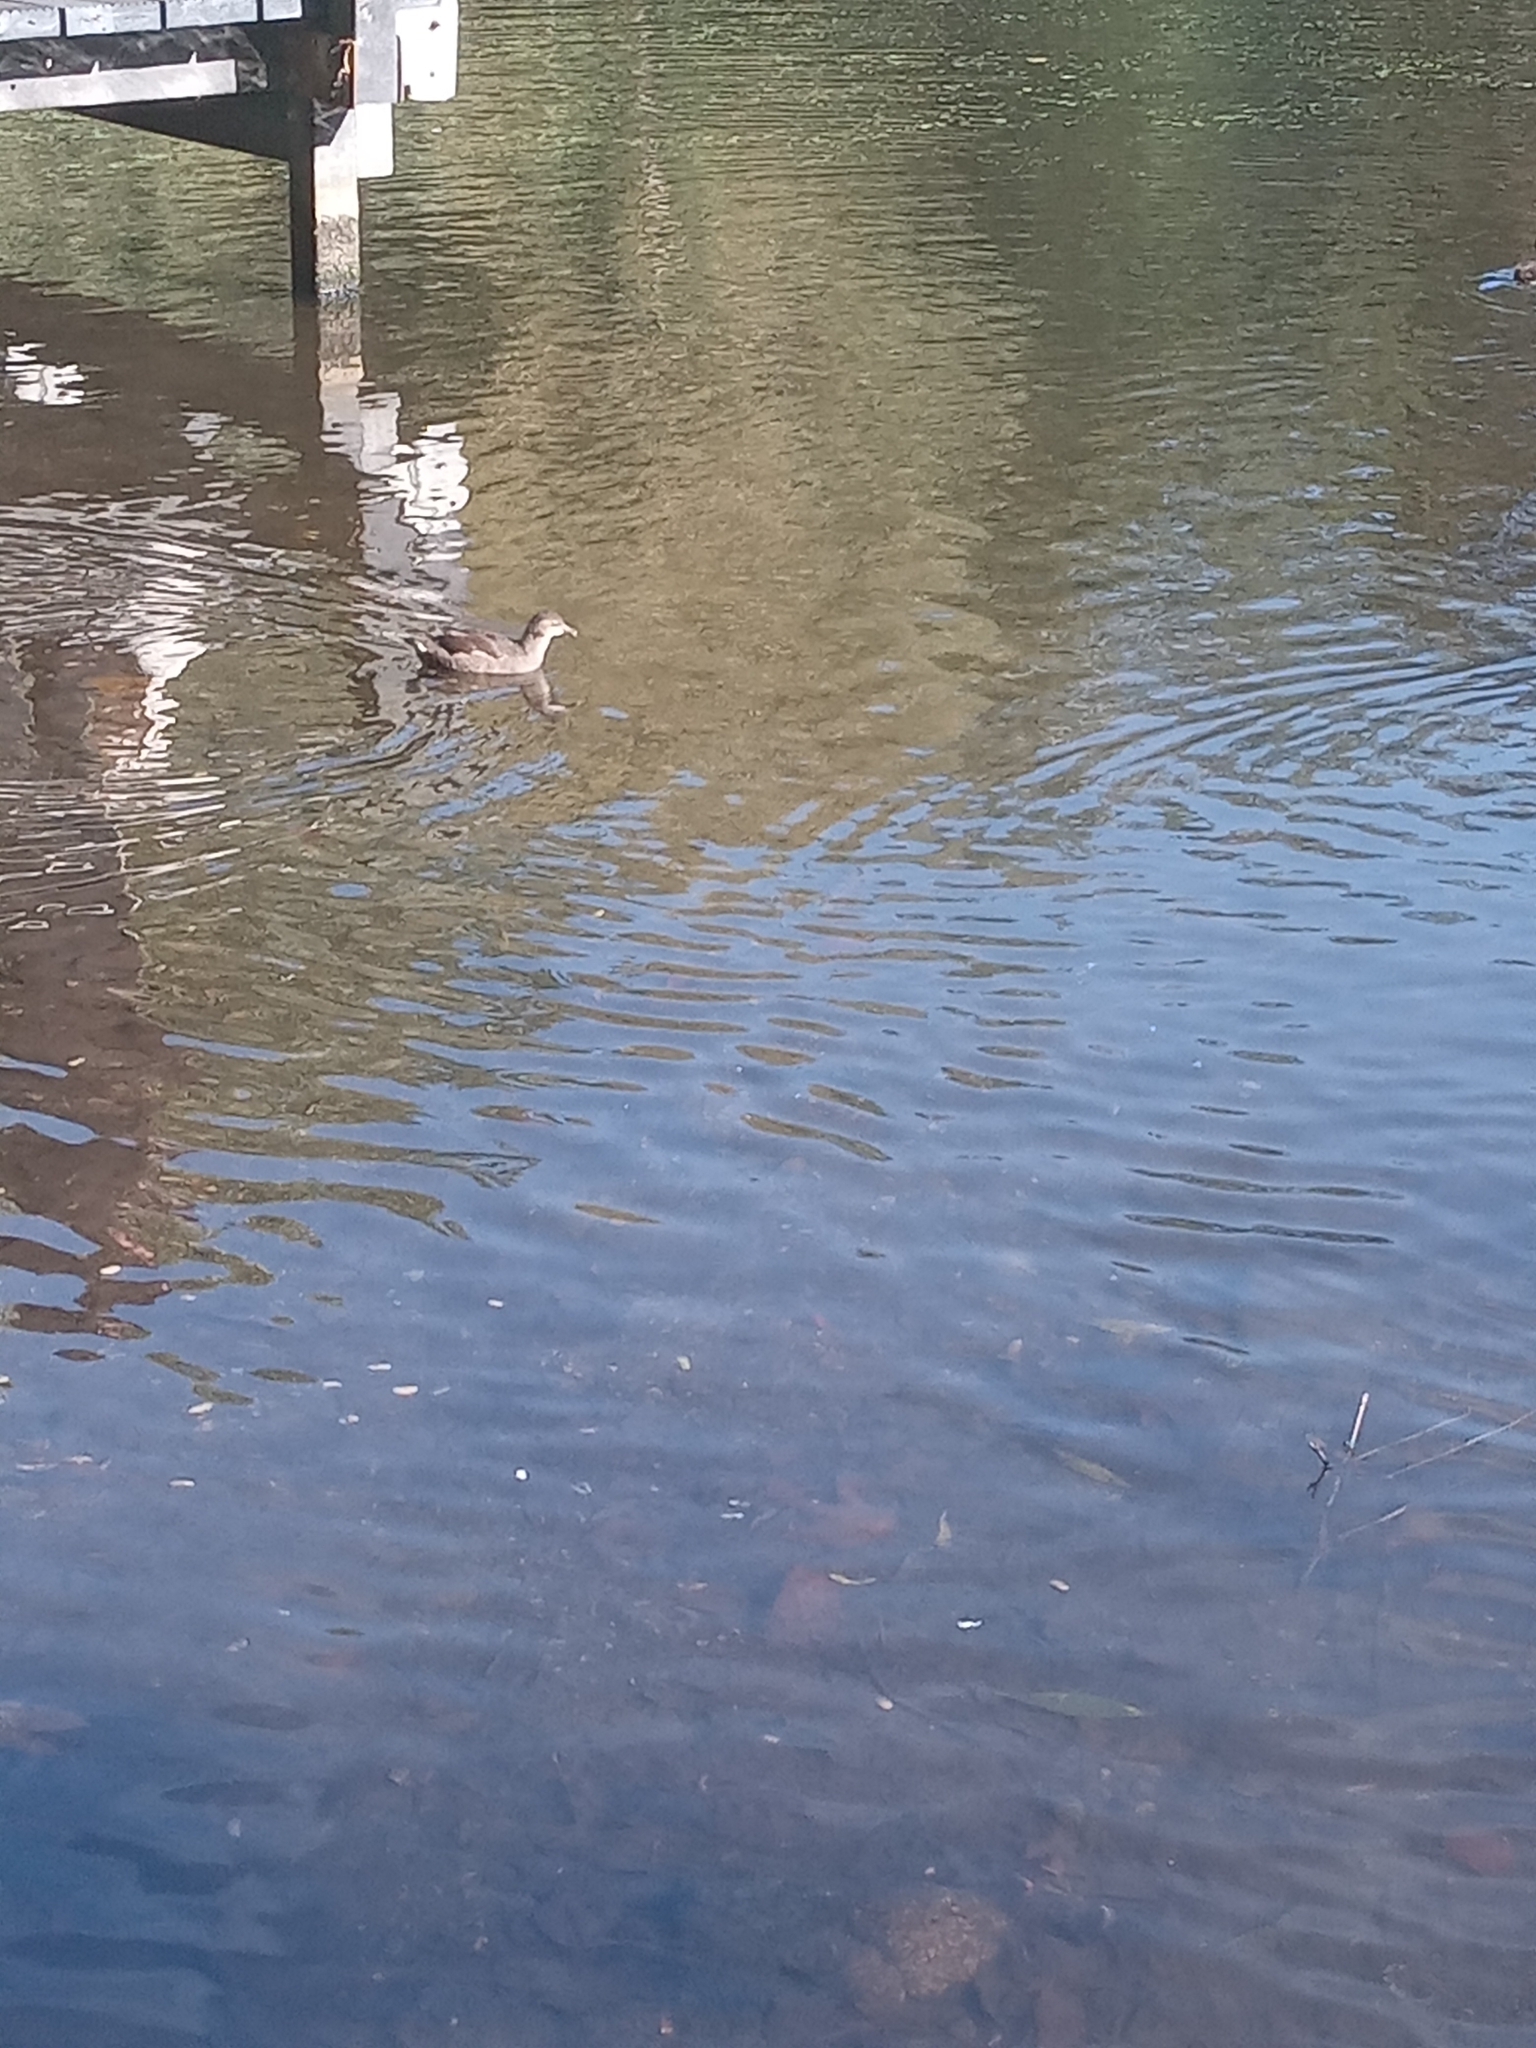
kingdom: Animalia
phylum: Chordata
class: Aves
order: Gruiformes
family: Rallidae
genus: Gallinula
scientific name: Gallinula chloropus
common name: Common moorhen
